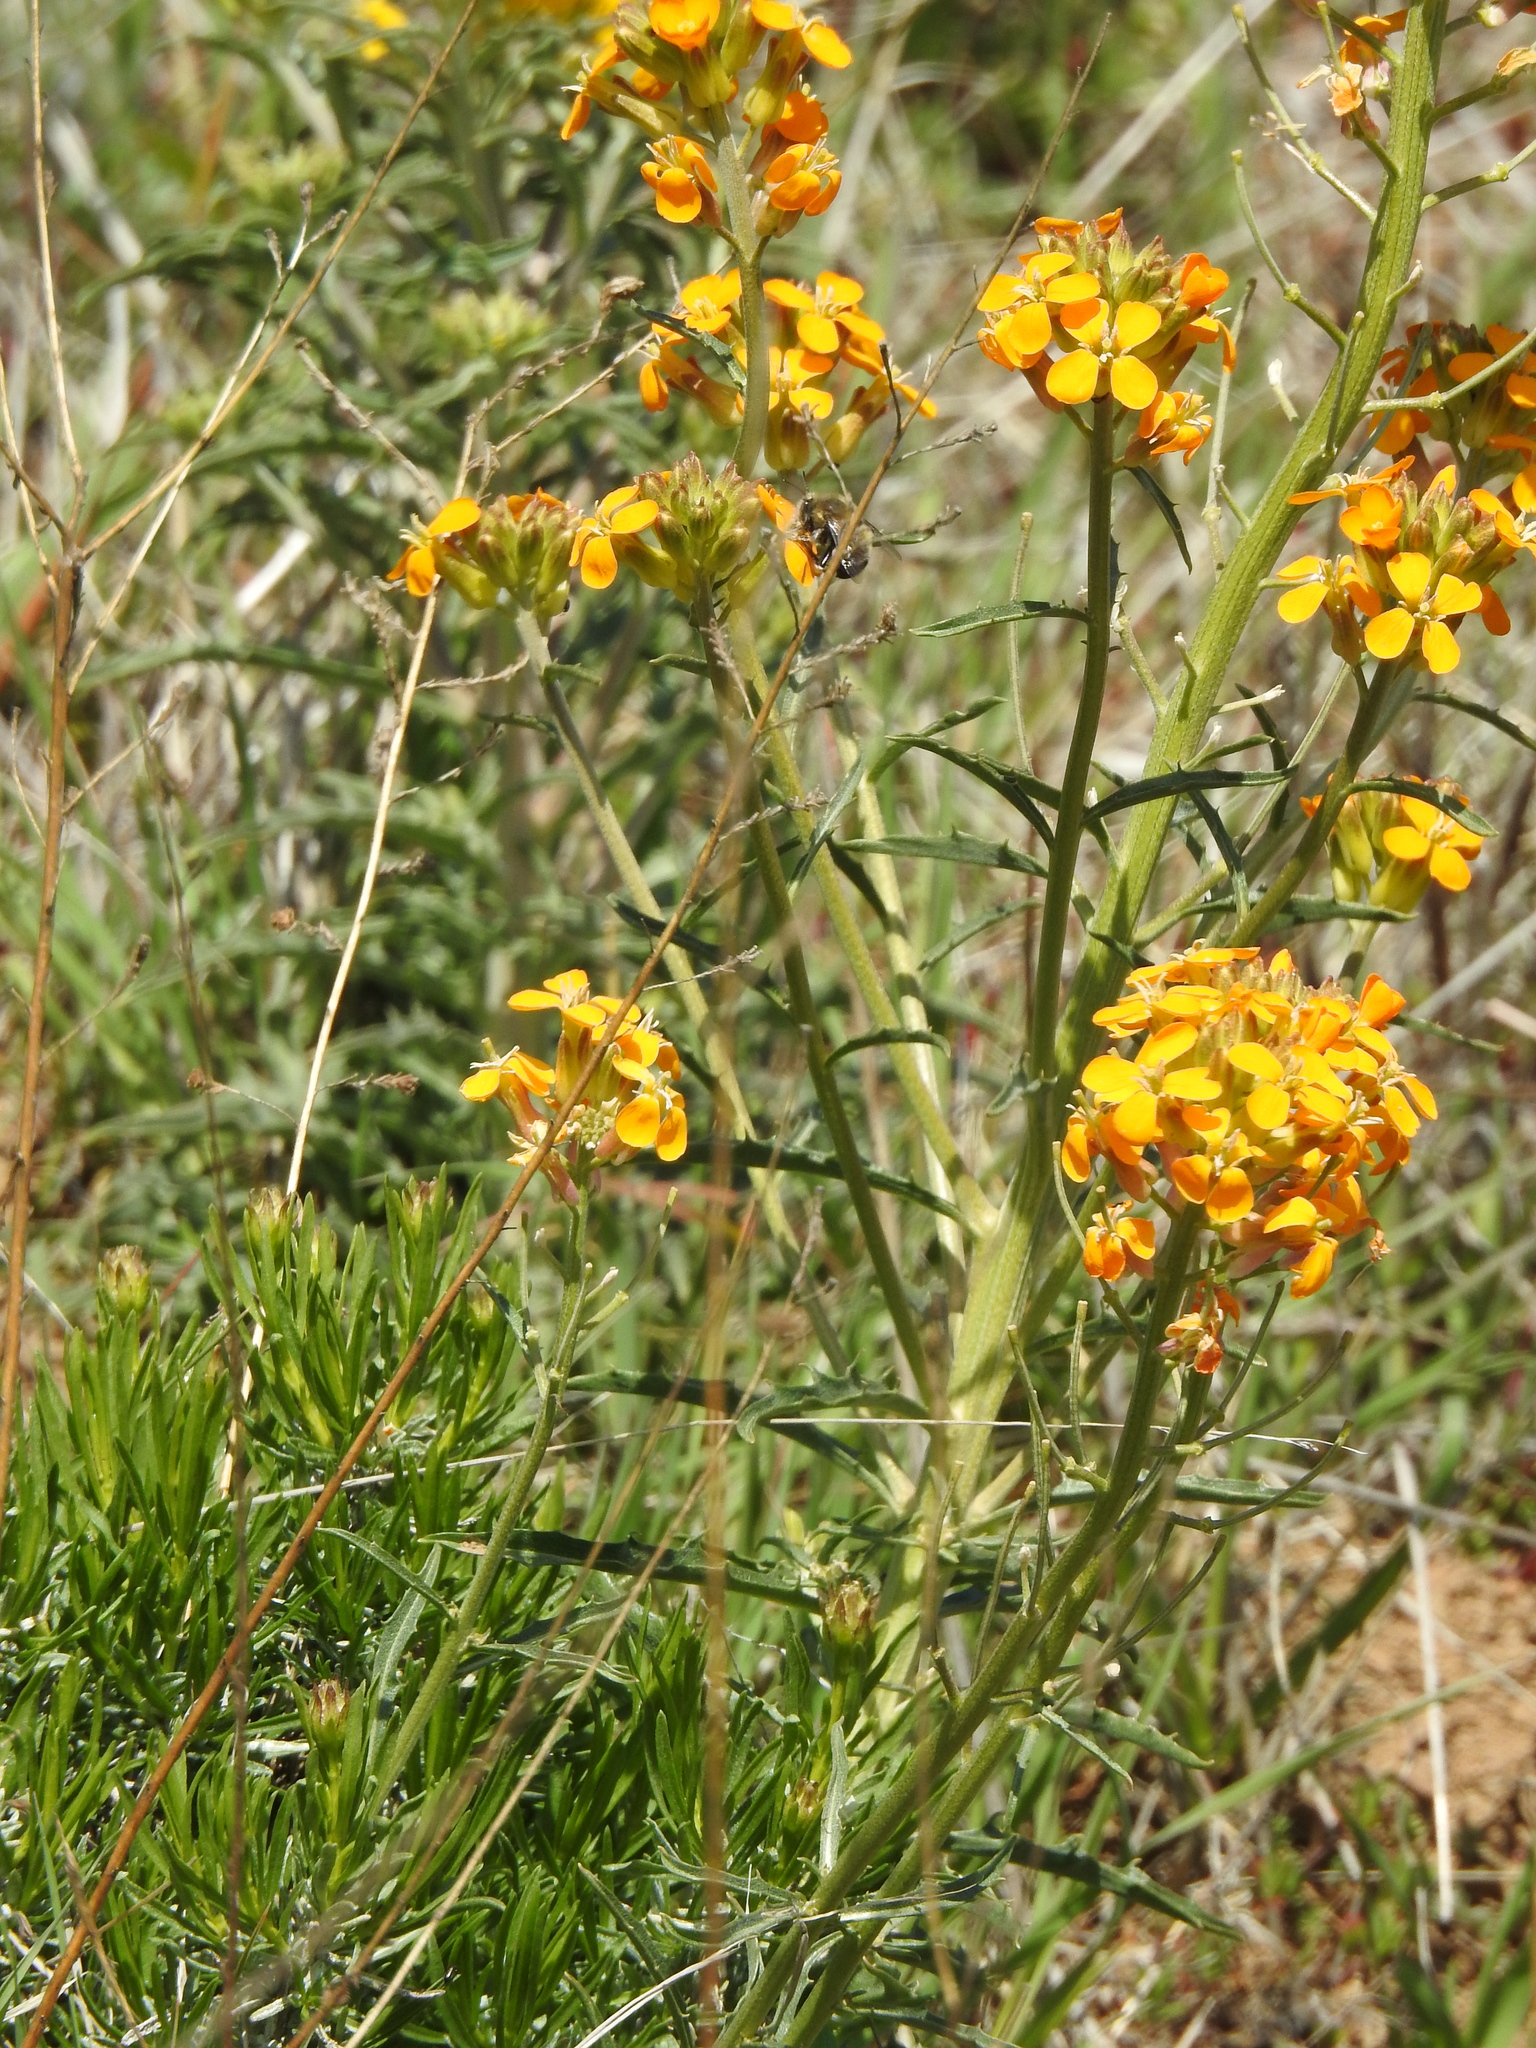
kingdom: Plantae
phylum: Tracheophyta
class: Magnoliopsida
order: Brassicales
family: Brassicaceae
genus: Erysimum
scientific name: Erysimum capitatum
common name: Western wallflower
